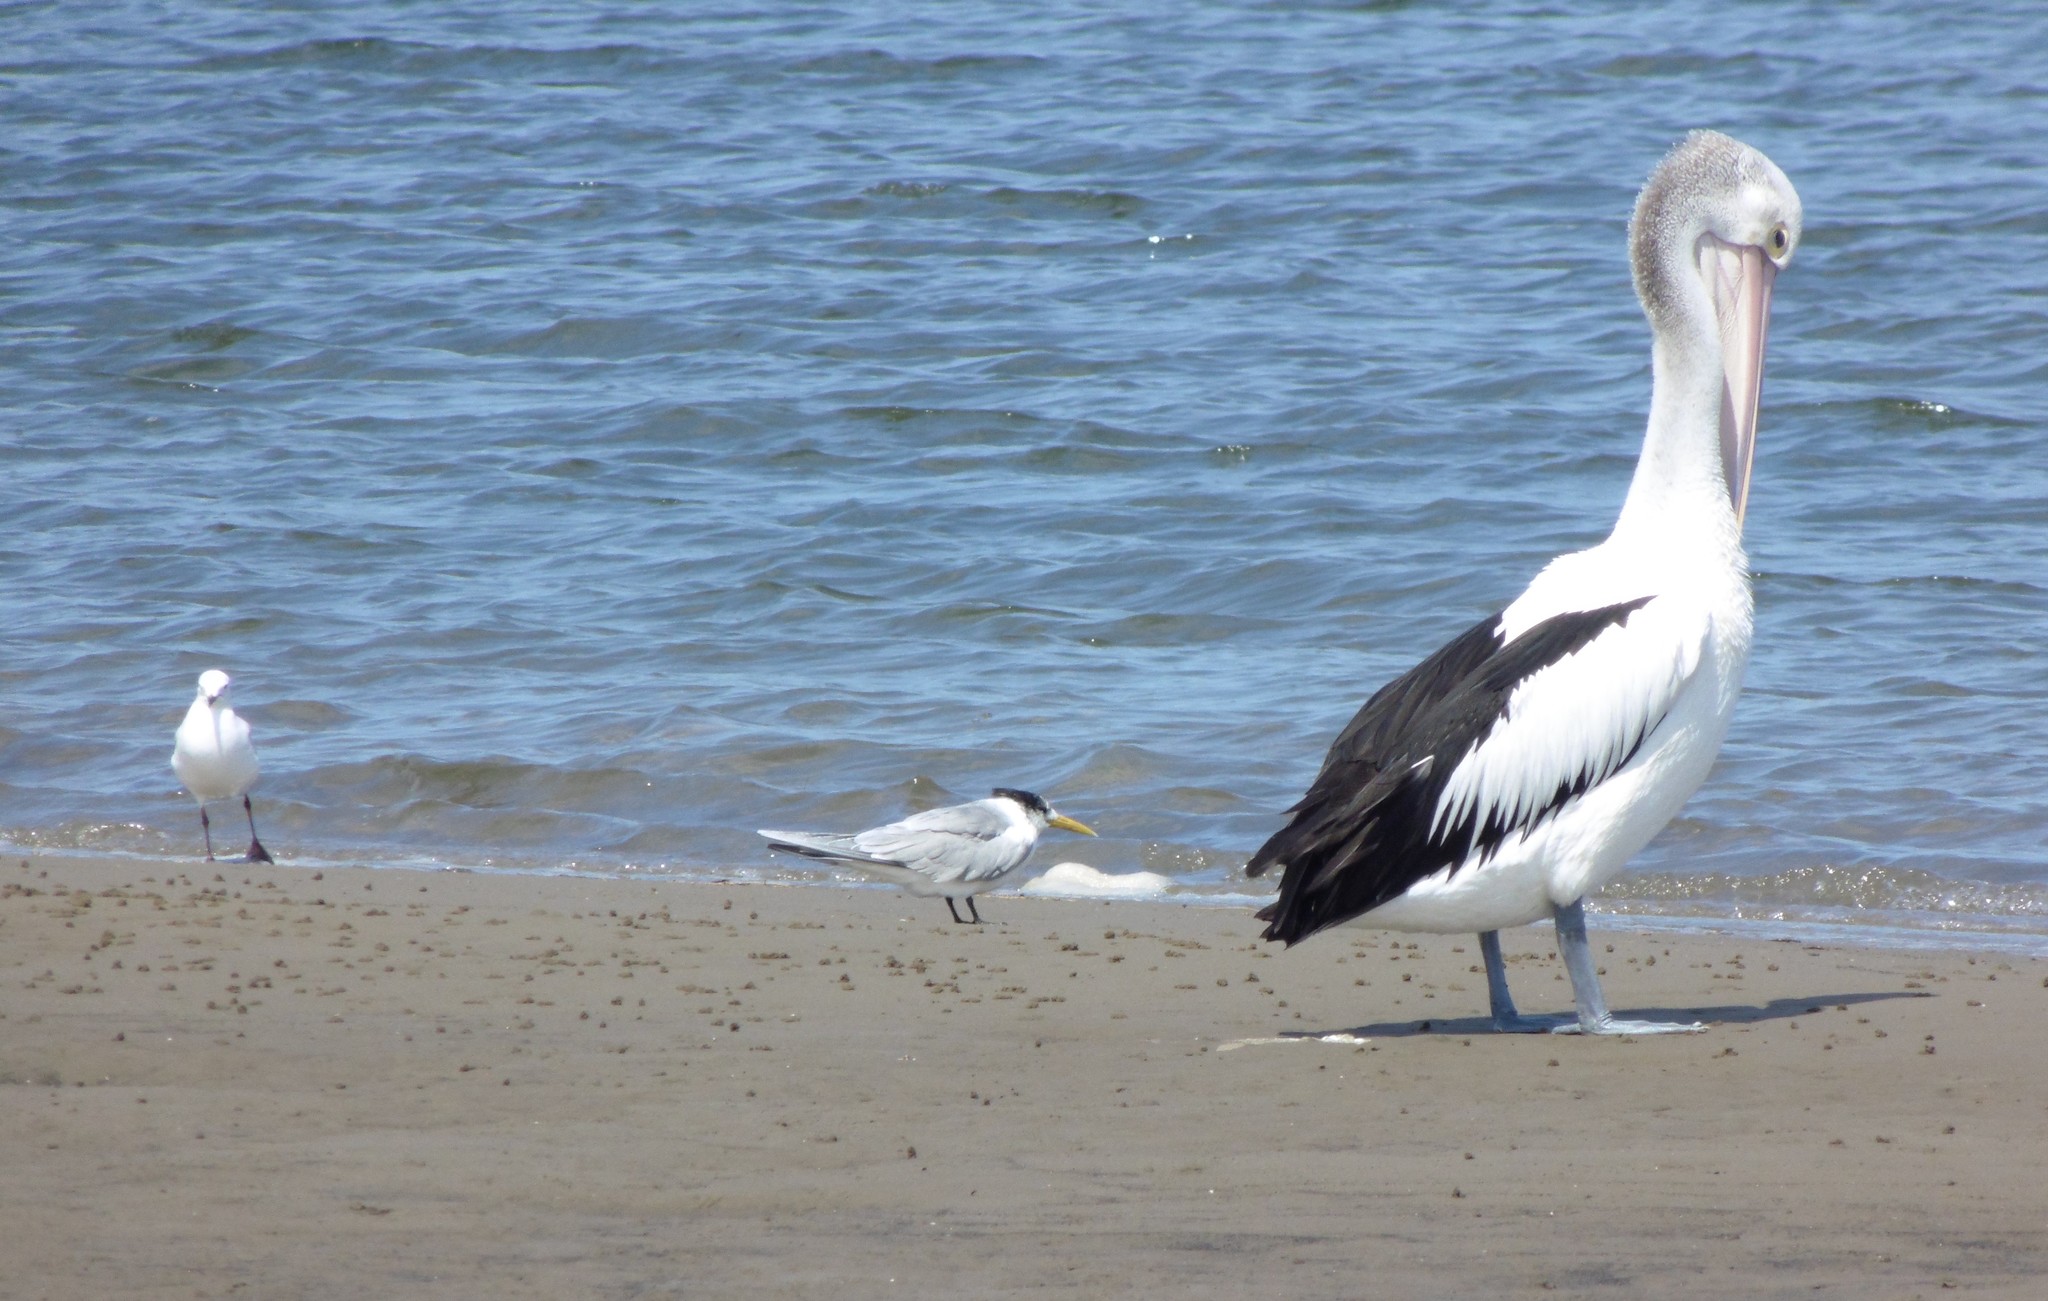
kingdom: Animalia
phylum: Chordata
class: Aves
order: Charadriiformes
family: Laridae
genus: Thalasseus
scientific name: Thalasseus bergii
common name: Greater crested tern
